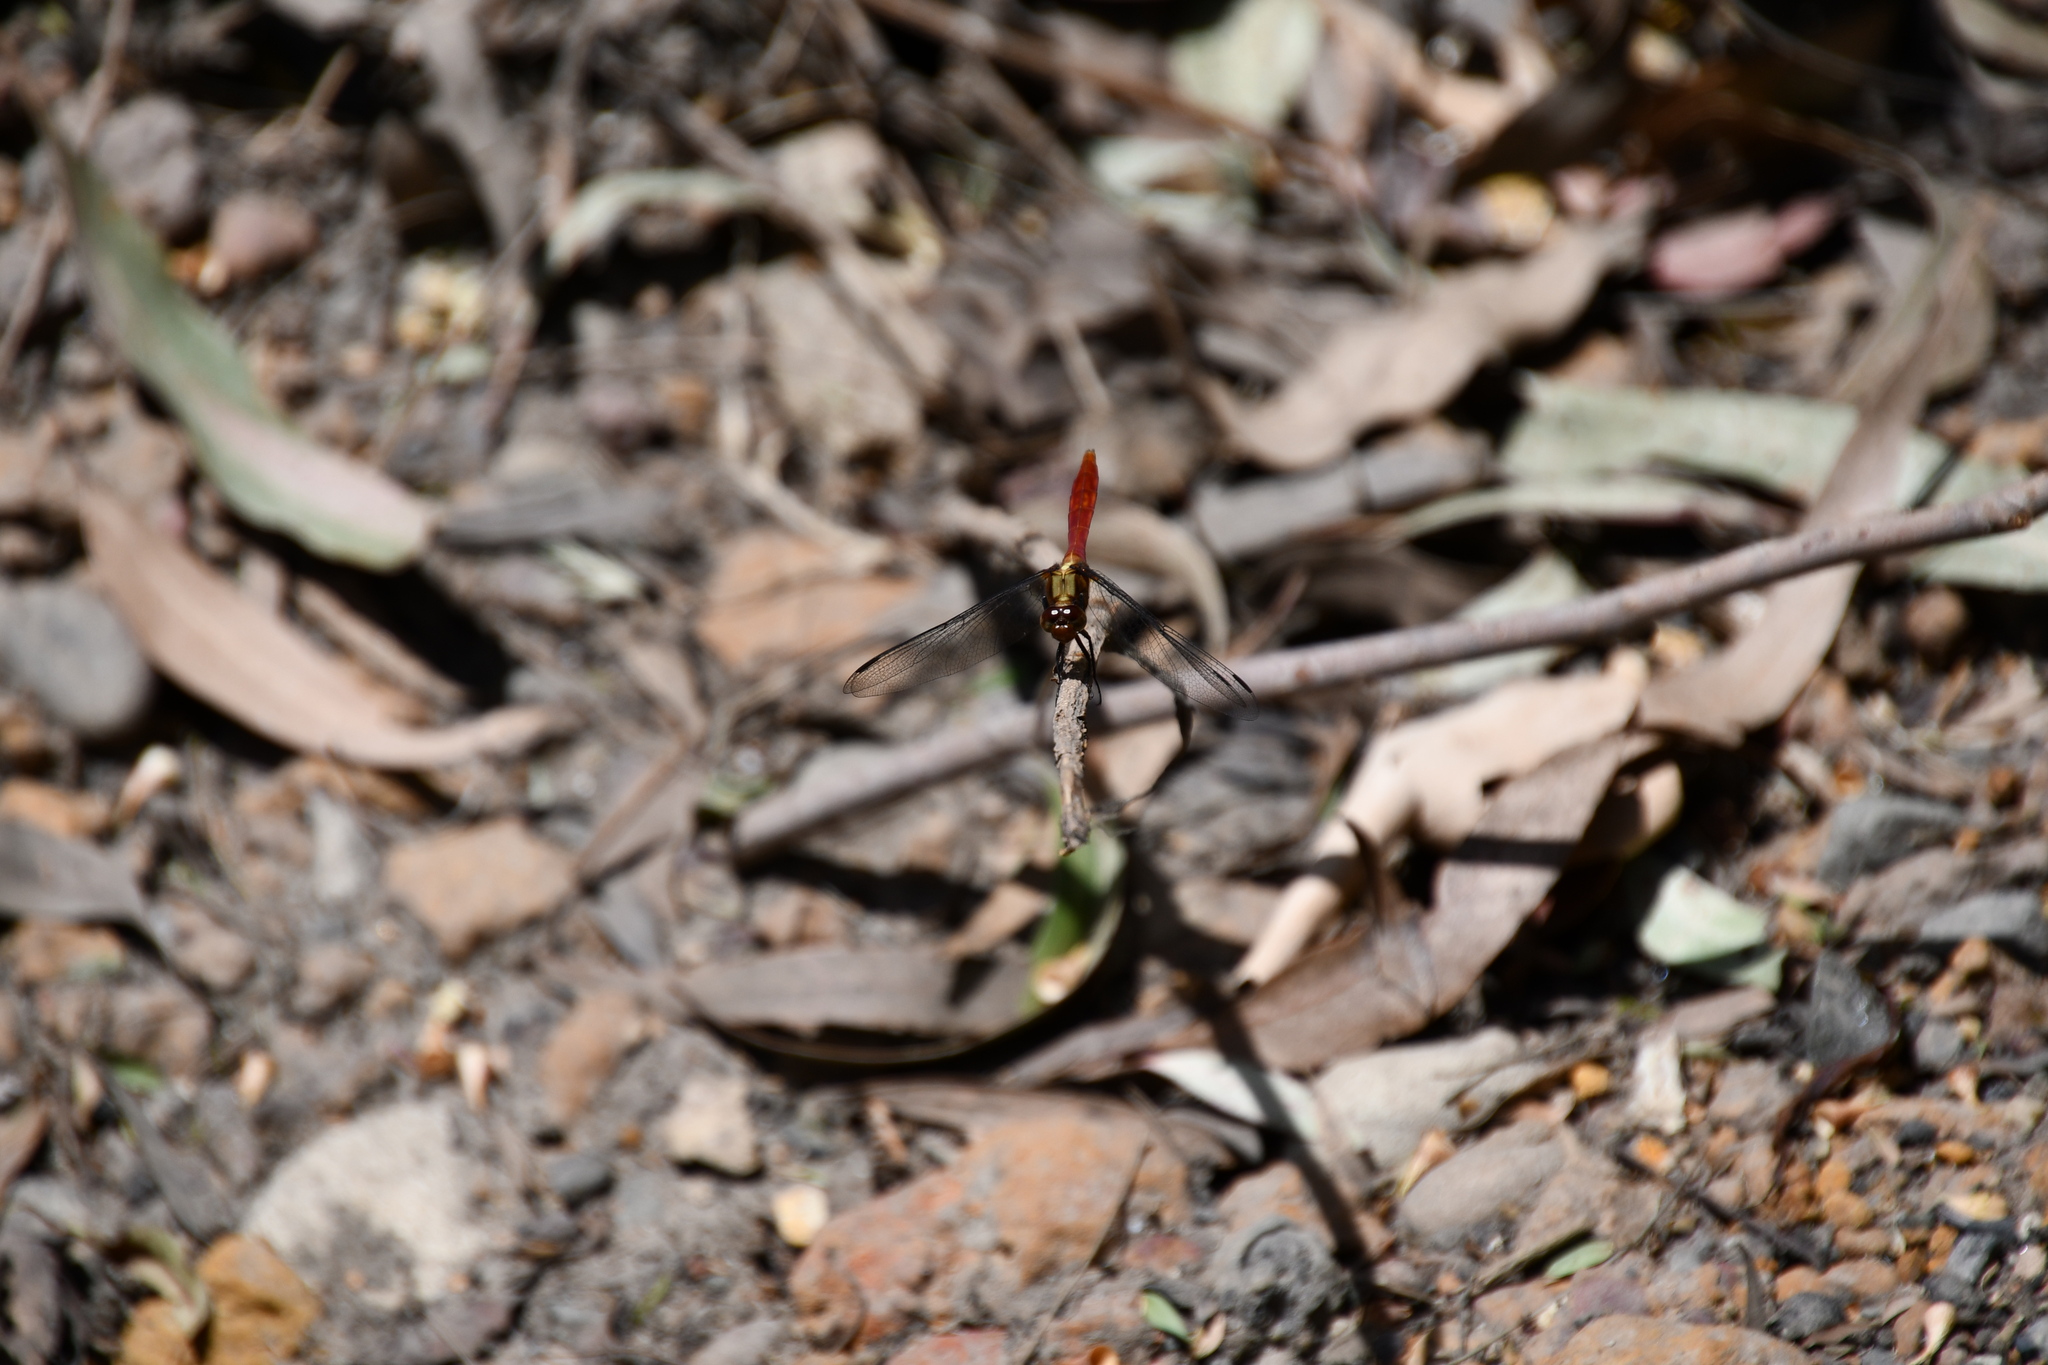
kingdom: Animalia
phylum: Arthropoda
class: Insecta
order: Odonata
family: Libellulidae
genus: Orthetrum
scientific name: Orthetrum villosovittatum
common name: Firery skimmer
